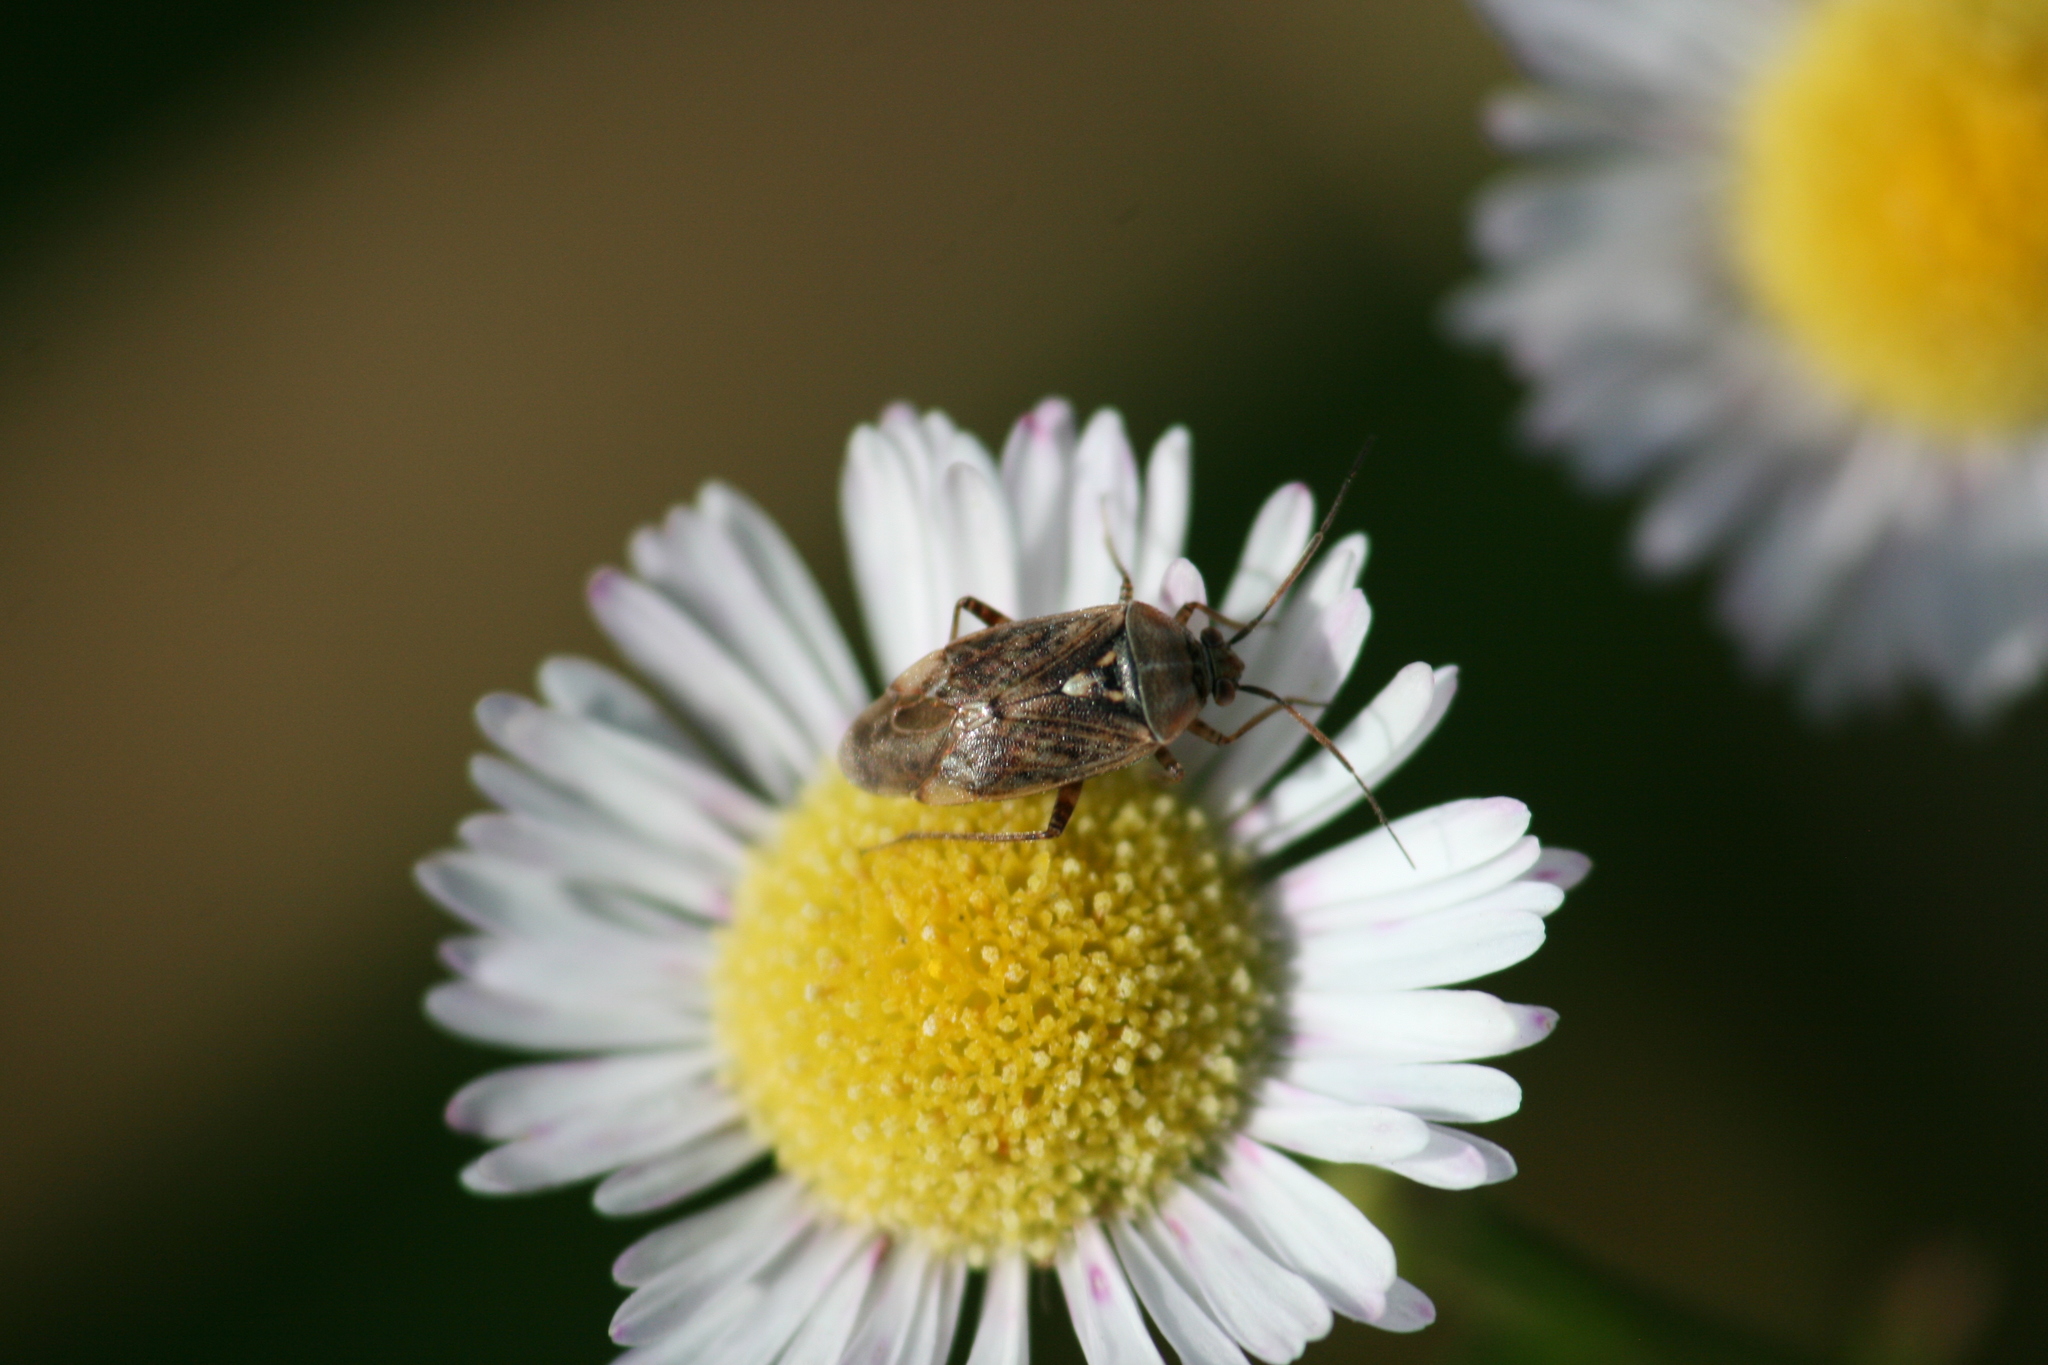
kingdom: Animalia
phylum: Arthropoda
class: Insecta
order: Hemiptera
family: Miridae
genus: Lygus
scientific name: Lygus rugulipennis
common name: European tarnished plant bug
